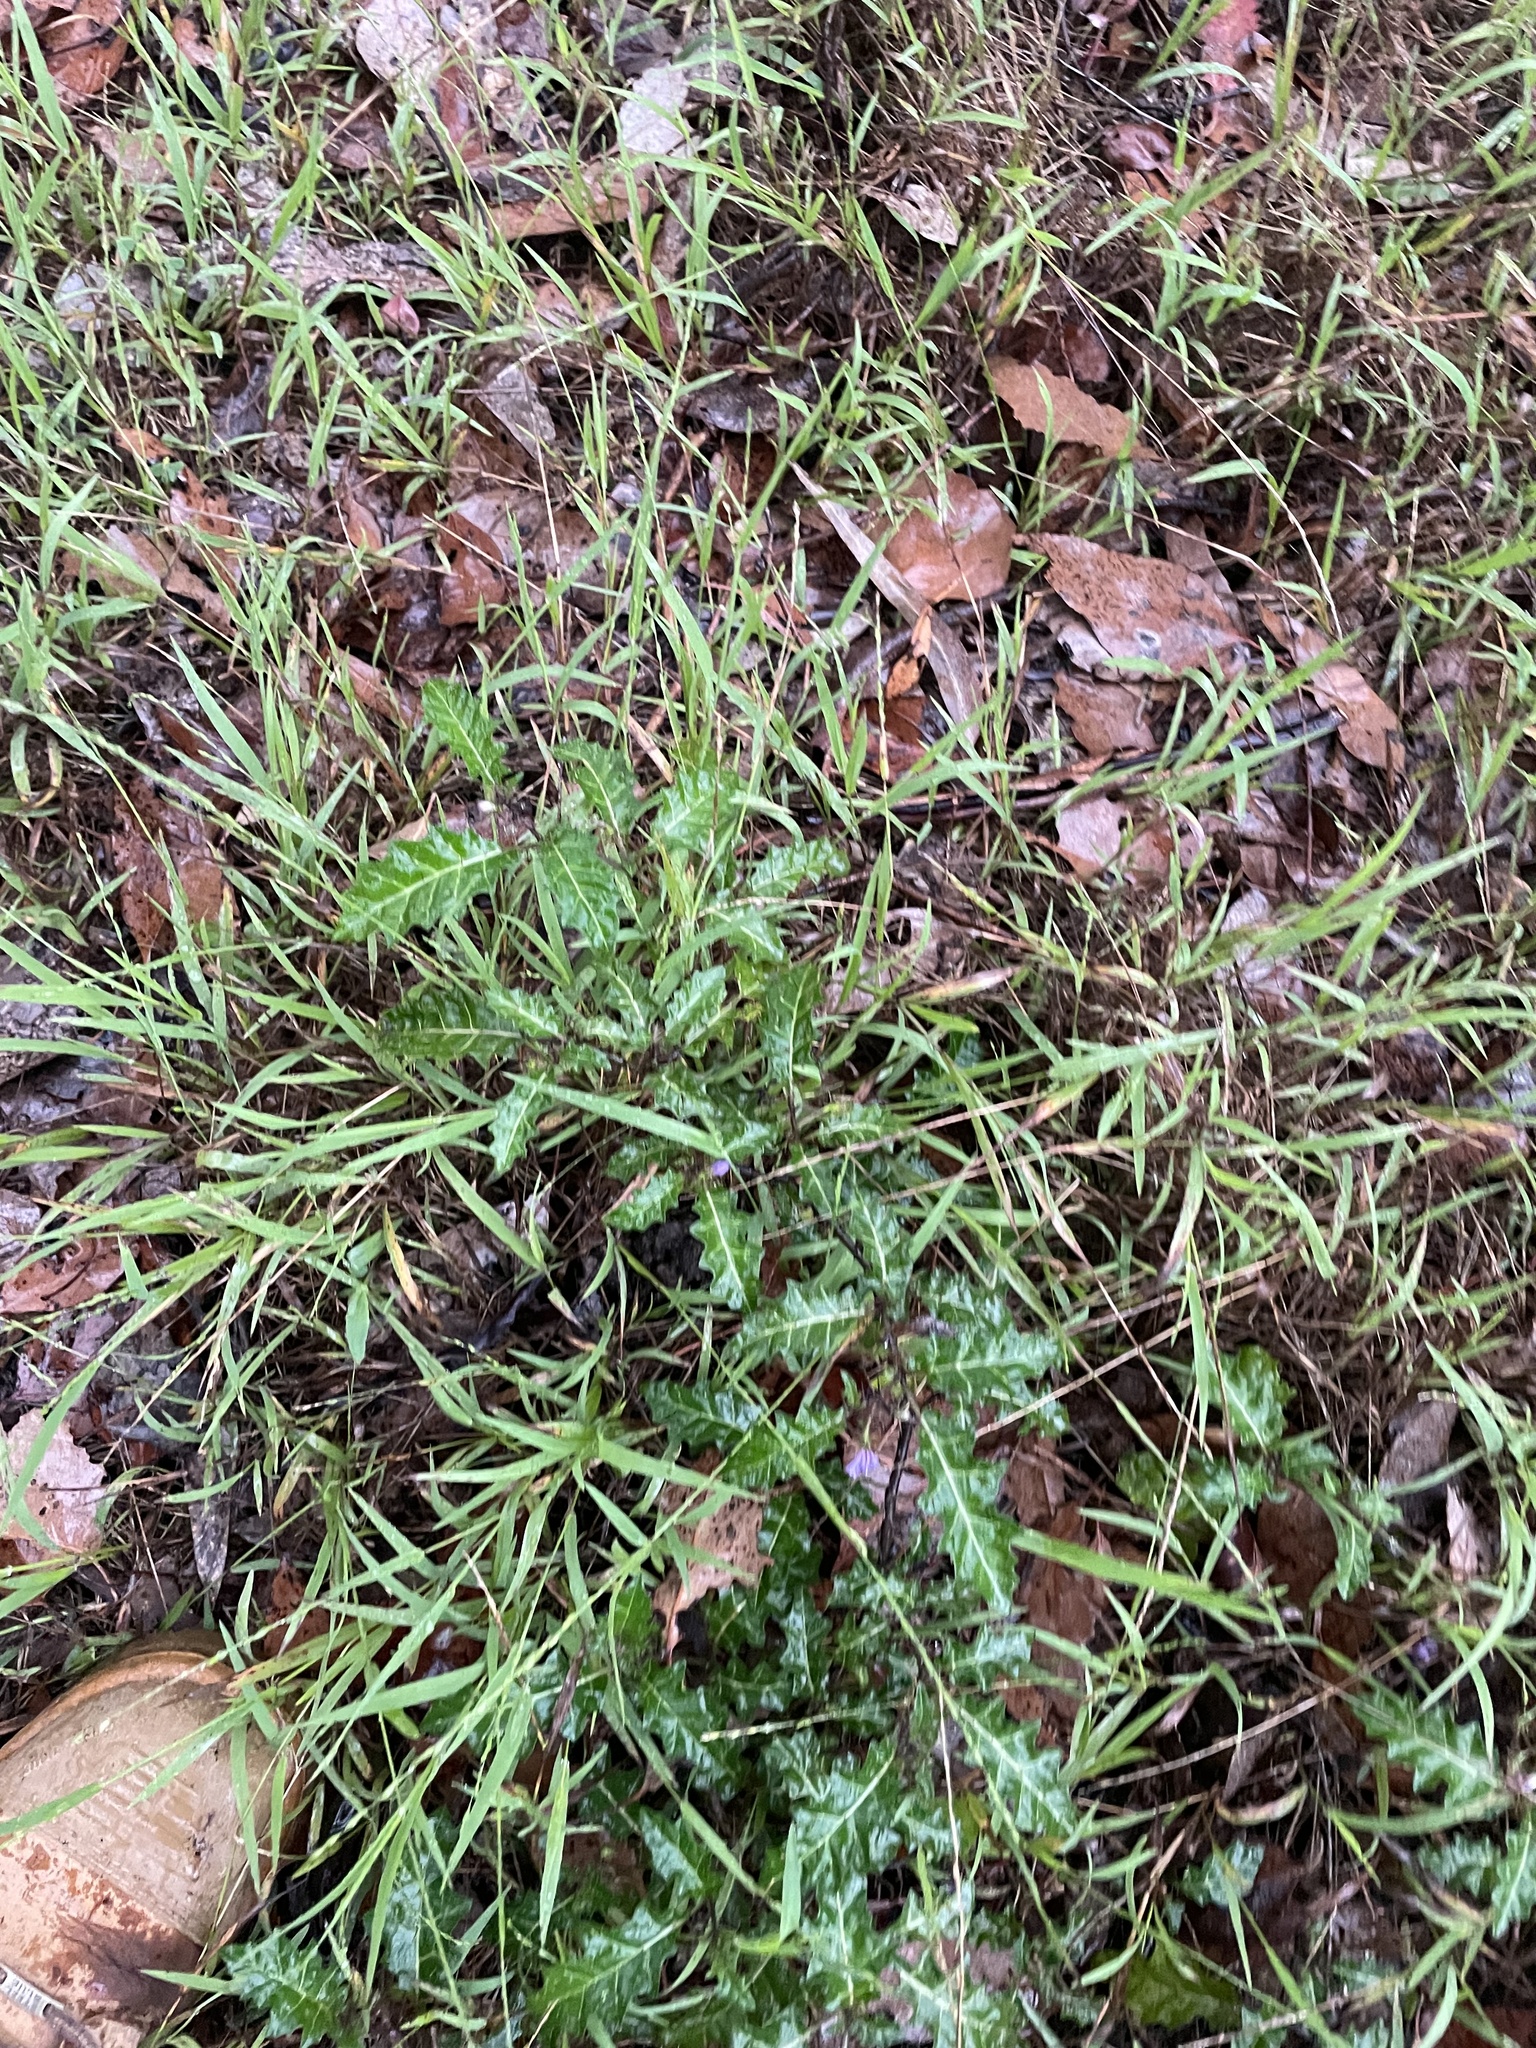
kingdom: Plantae
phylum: Tracheophyta
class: Magnoliopsida
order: Solanales
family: Solanaceae
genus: Solanum
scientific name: Solanum prinophyllum
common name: Forest nightshade
